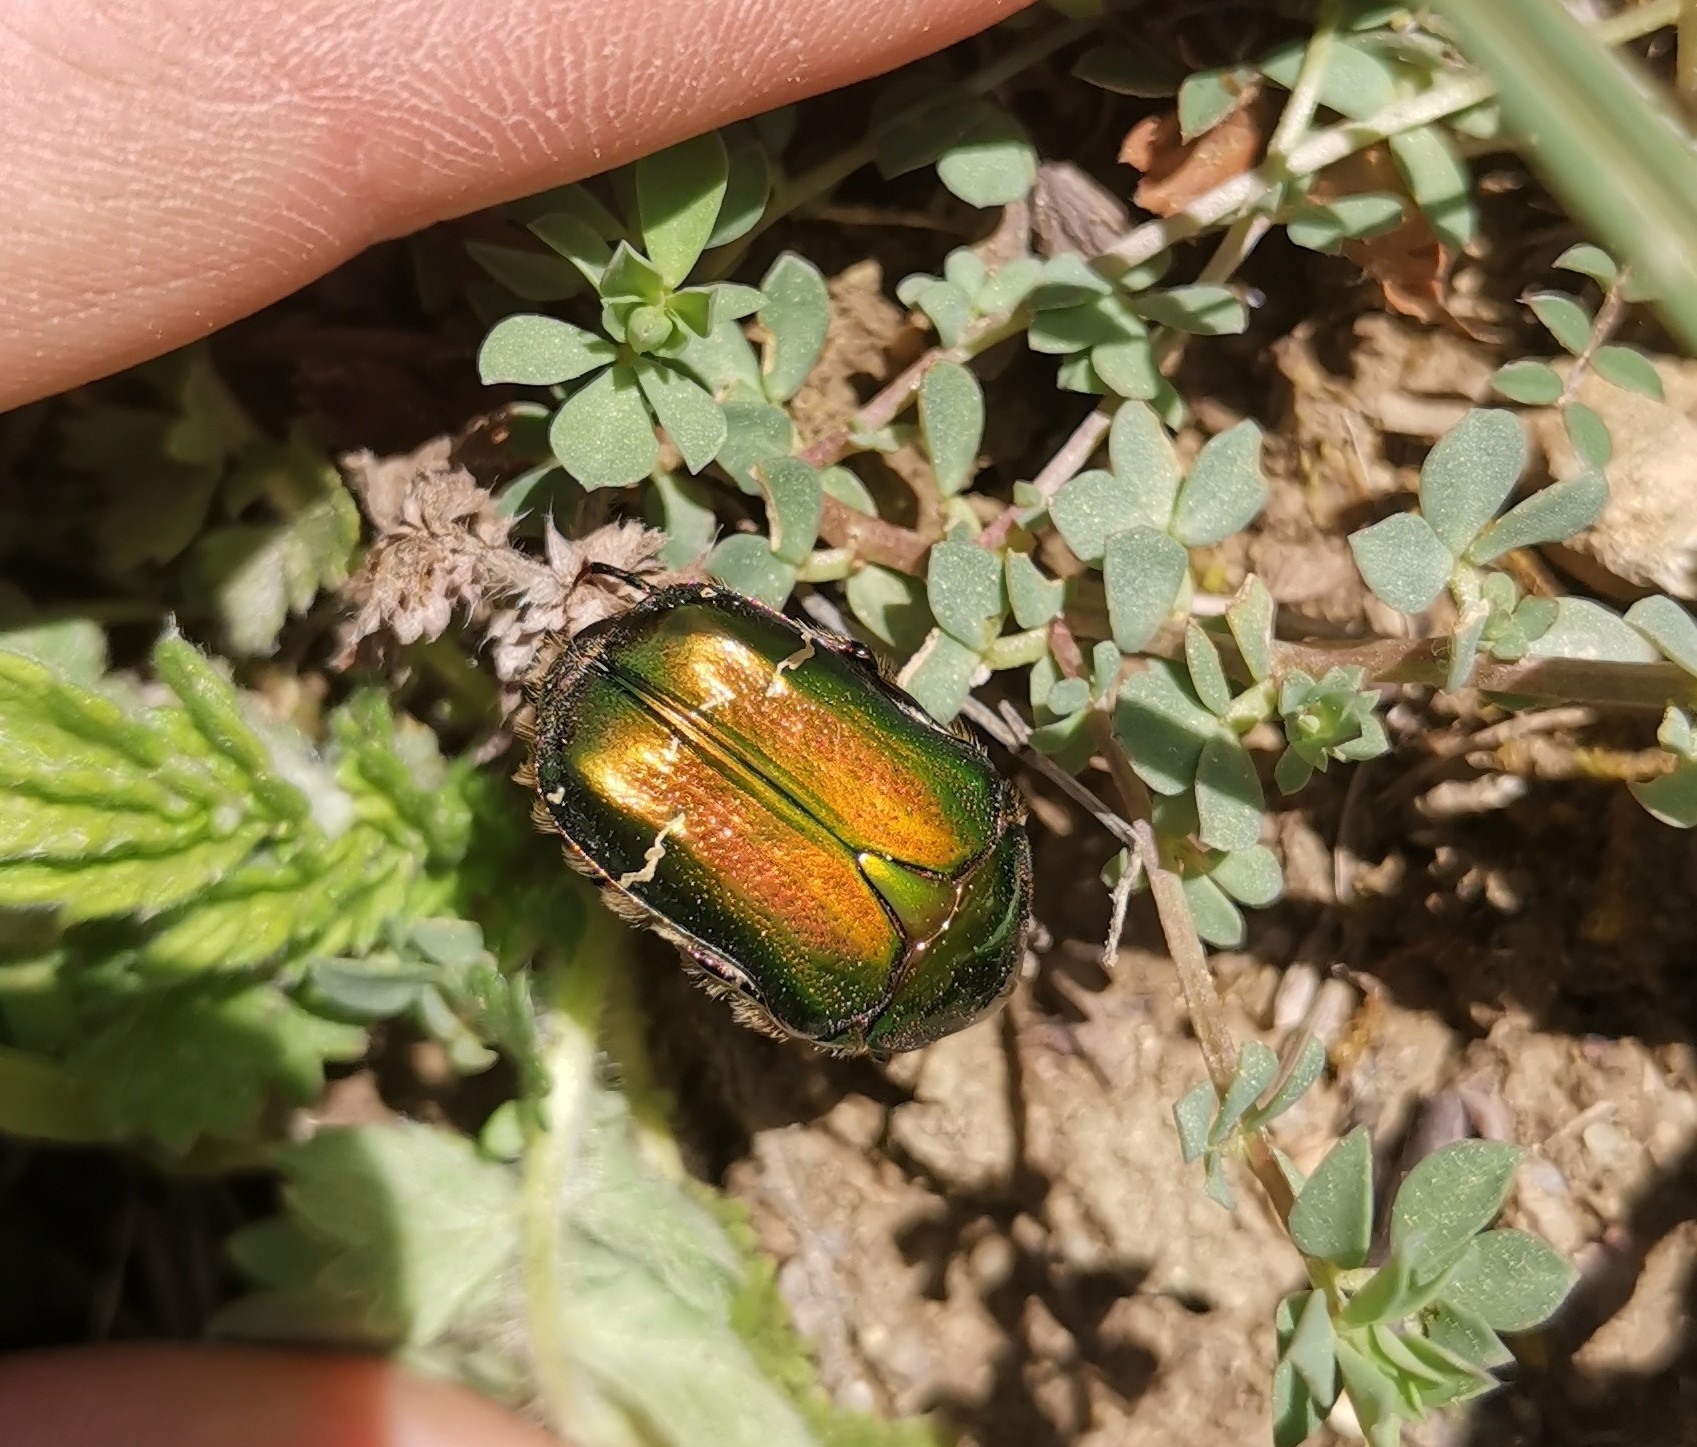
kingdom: Animalia
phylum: Arthropoda
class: Insecta
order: Coleoptera
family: Scarabaeidae
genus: Cetonia
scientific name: Cetonia aurata
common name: Rose chafer
